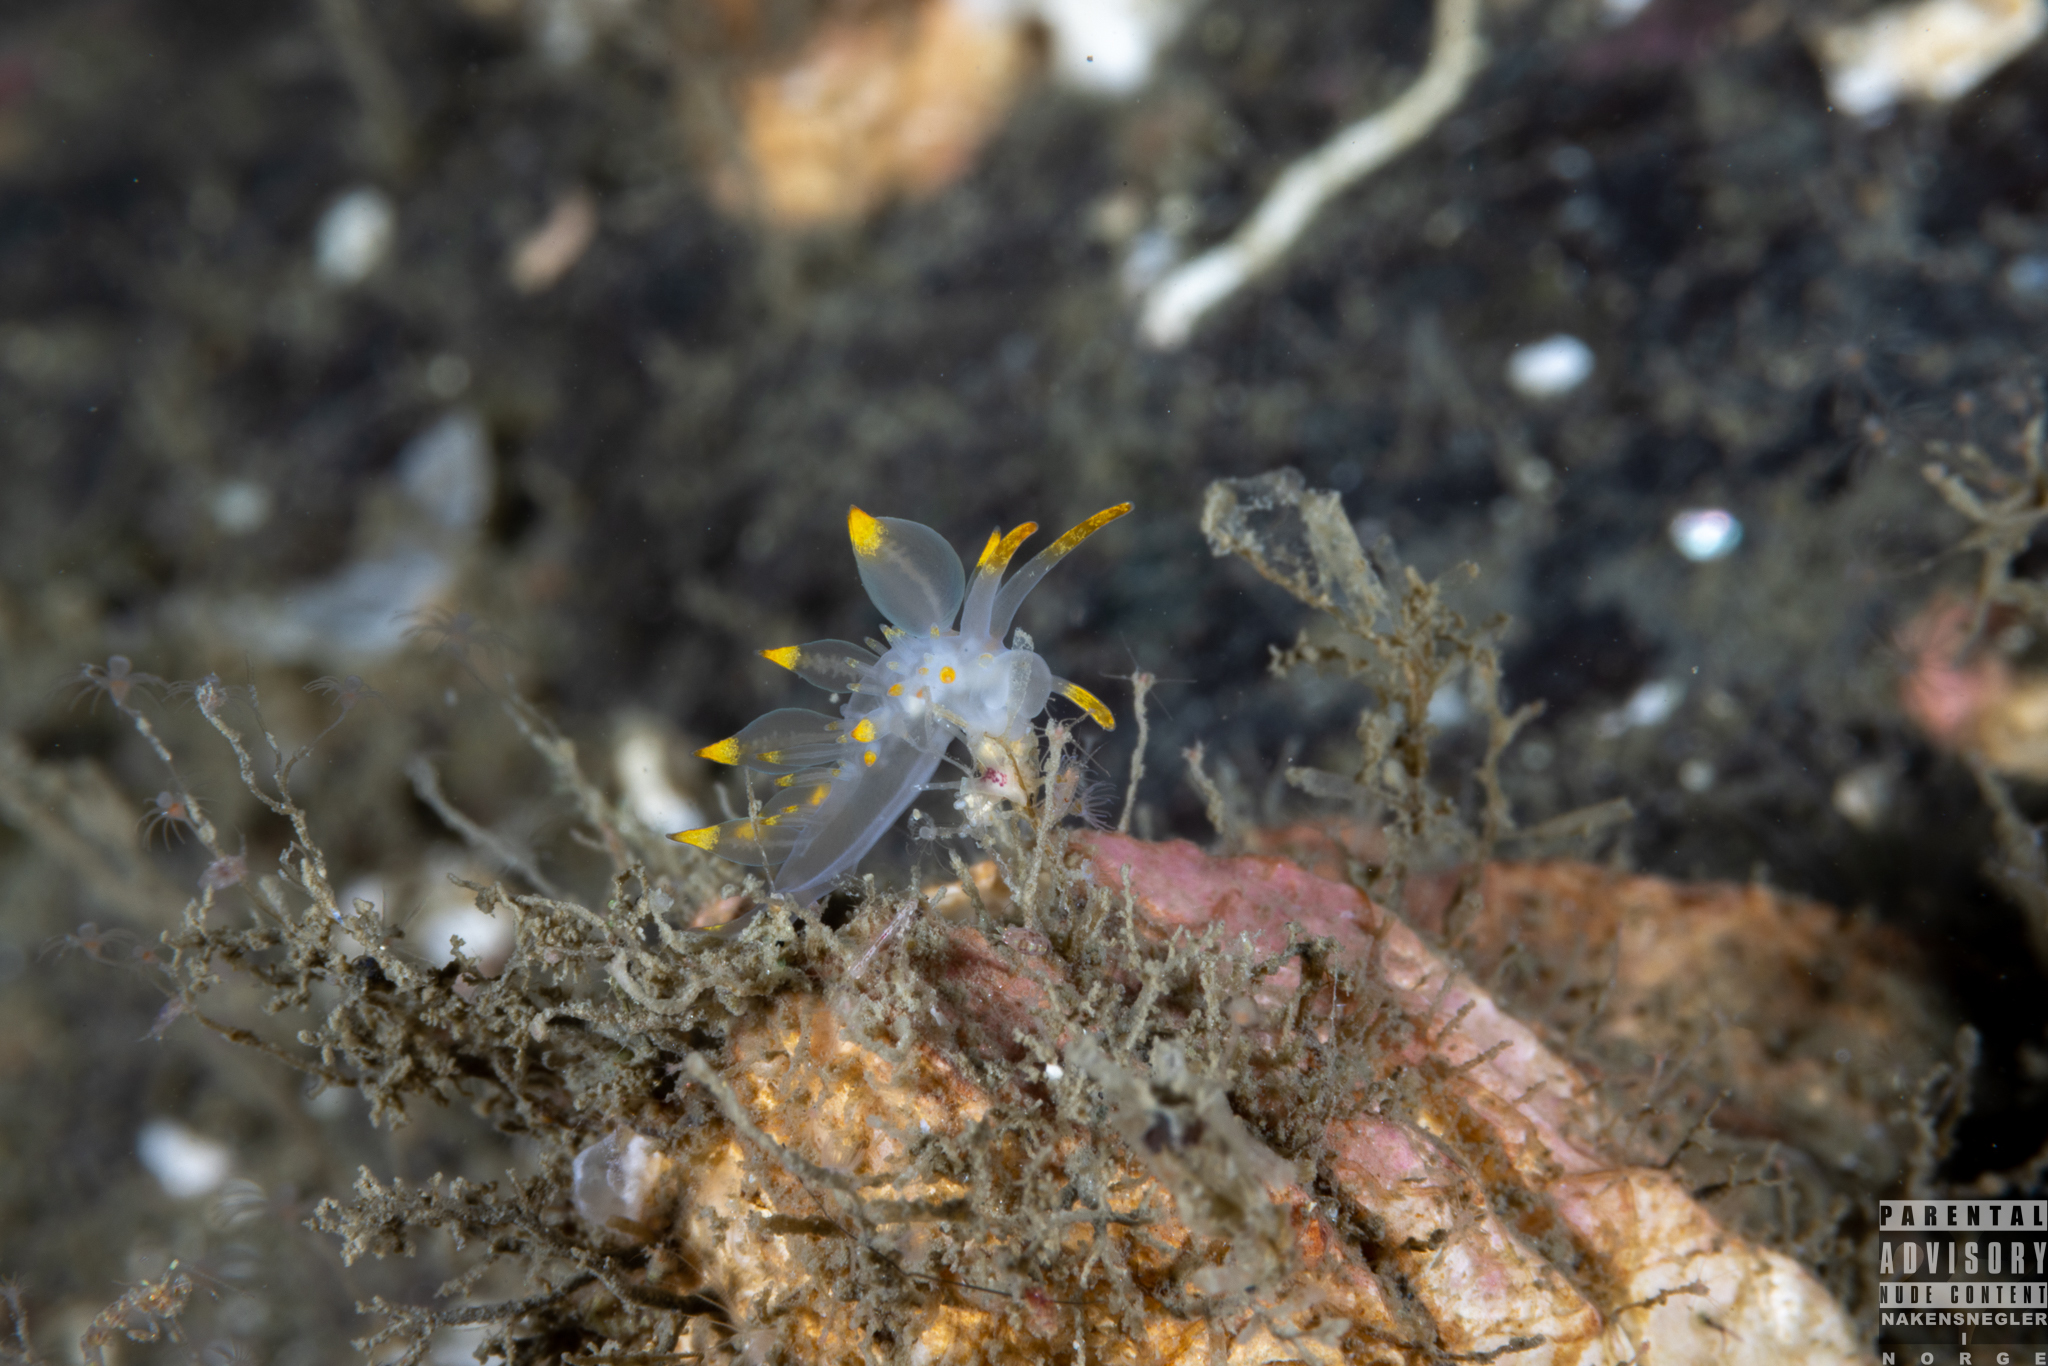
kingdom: Animalia
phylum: Mollusca
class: Gastropoda
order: Nudibranchia
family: Eubranchidae
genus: Amphorina
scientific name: Amphorina farrani
